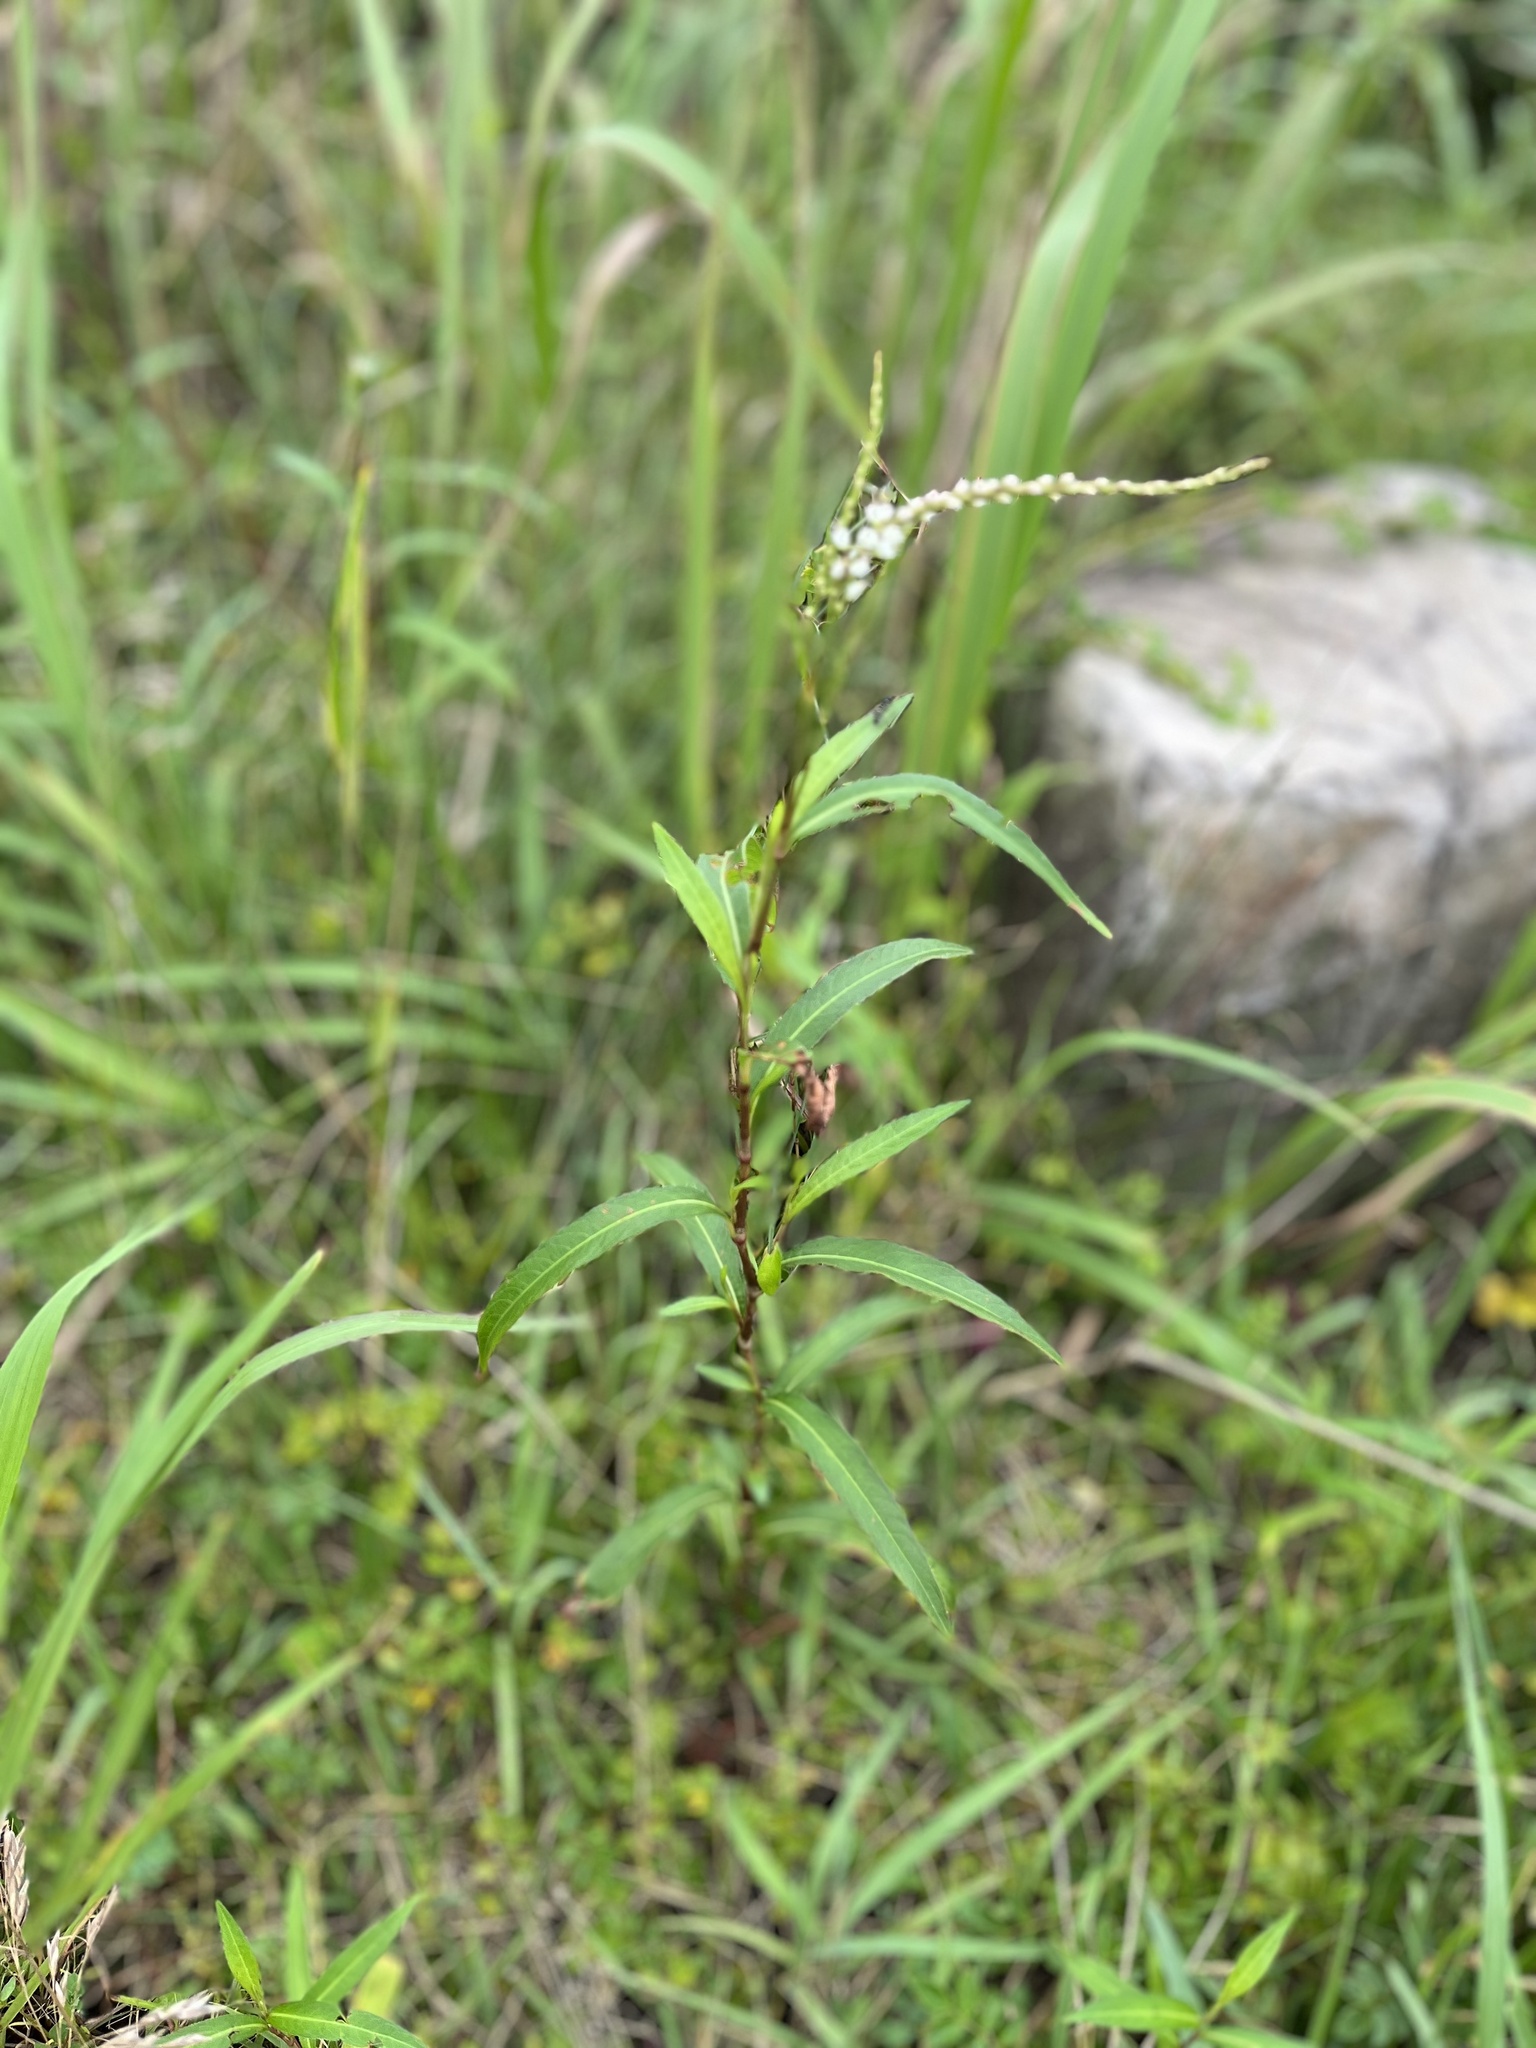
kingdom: Plantae
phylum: Tracheophyta
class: Magnoliopsida
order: Caryophyllales
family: Polygonaceae
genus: Persicaria
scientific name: Persicaria japonica
